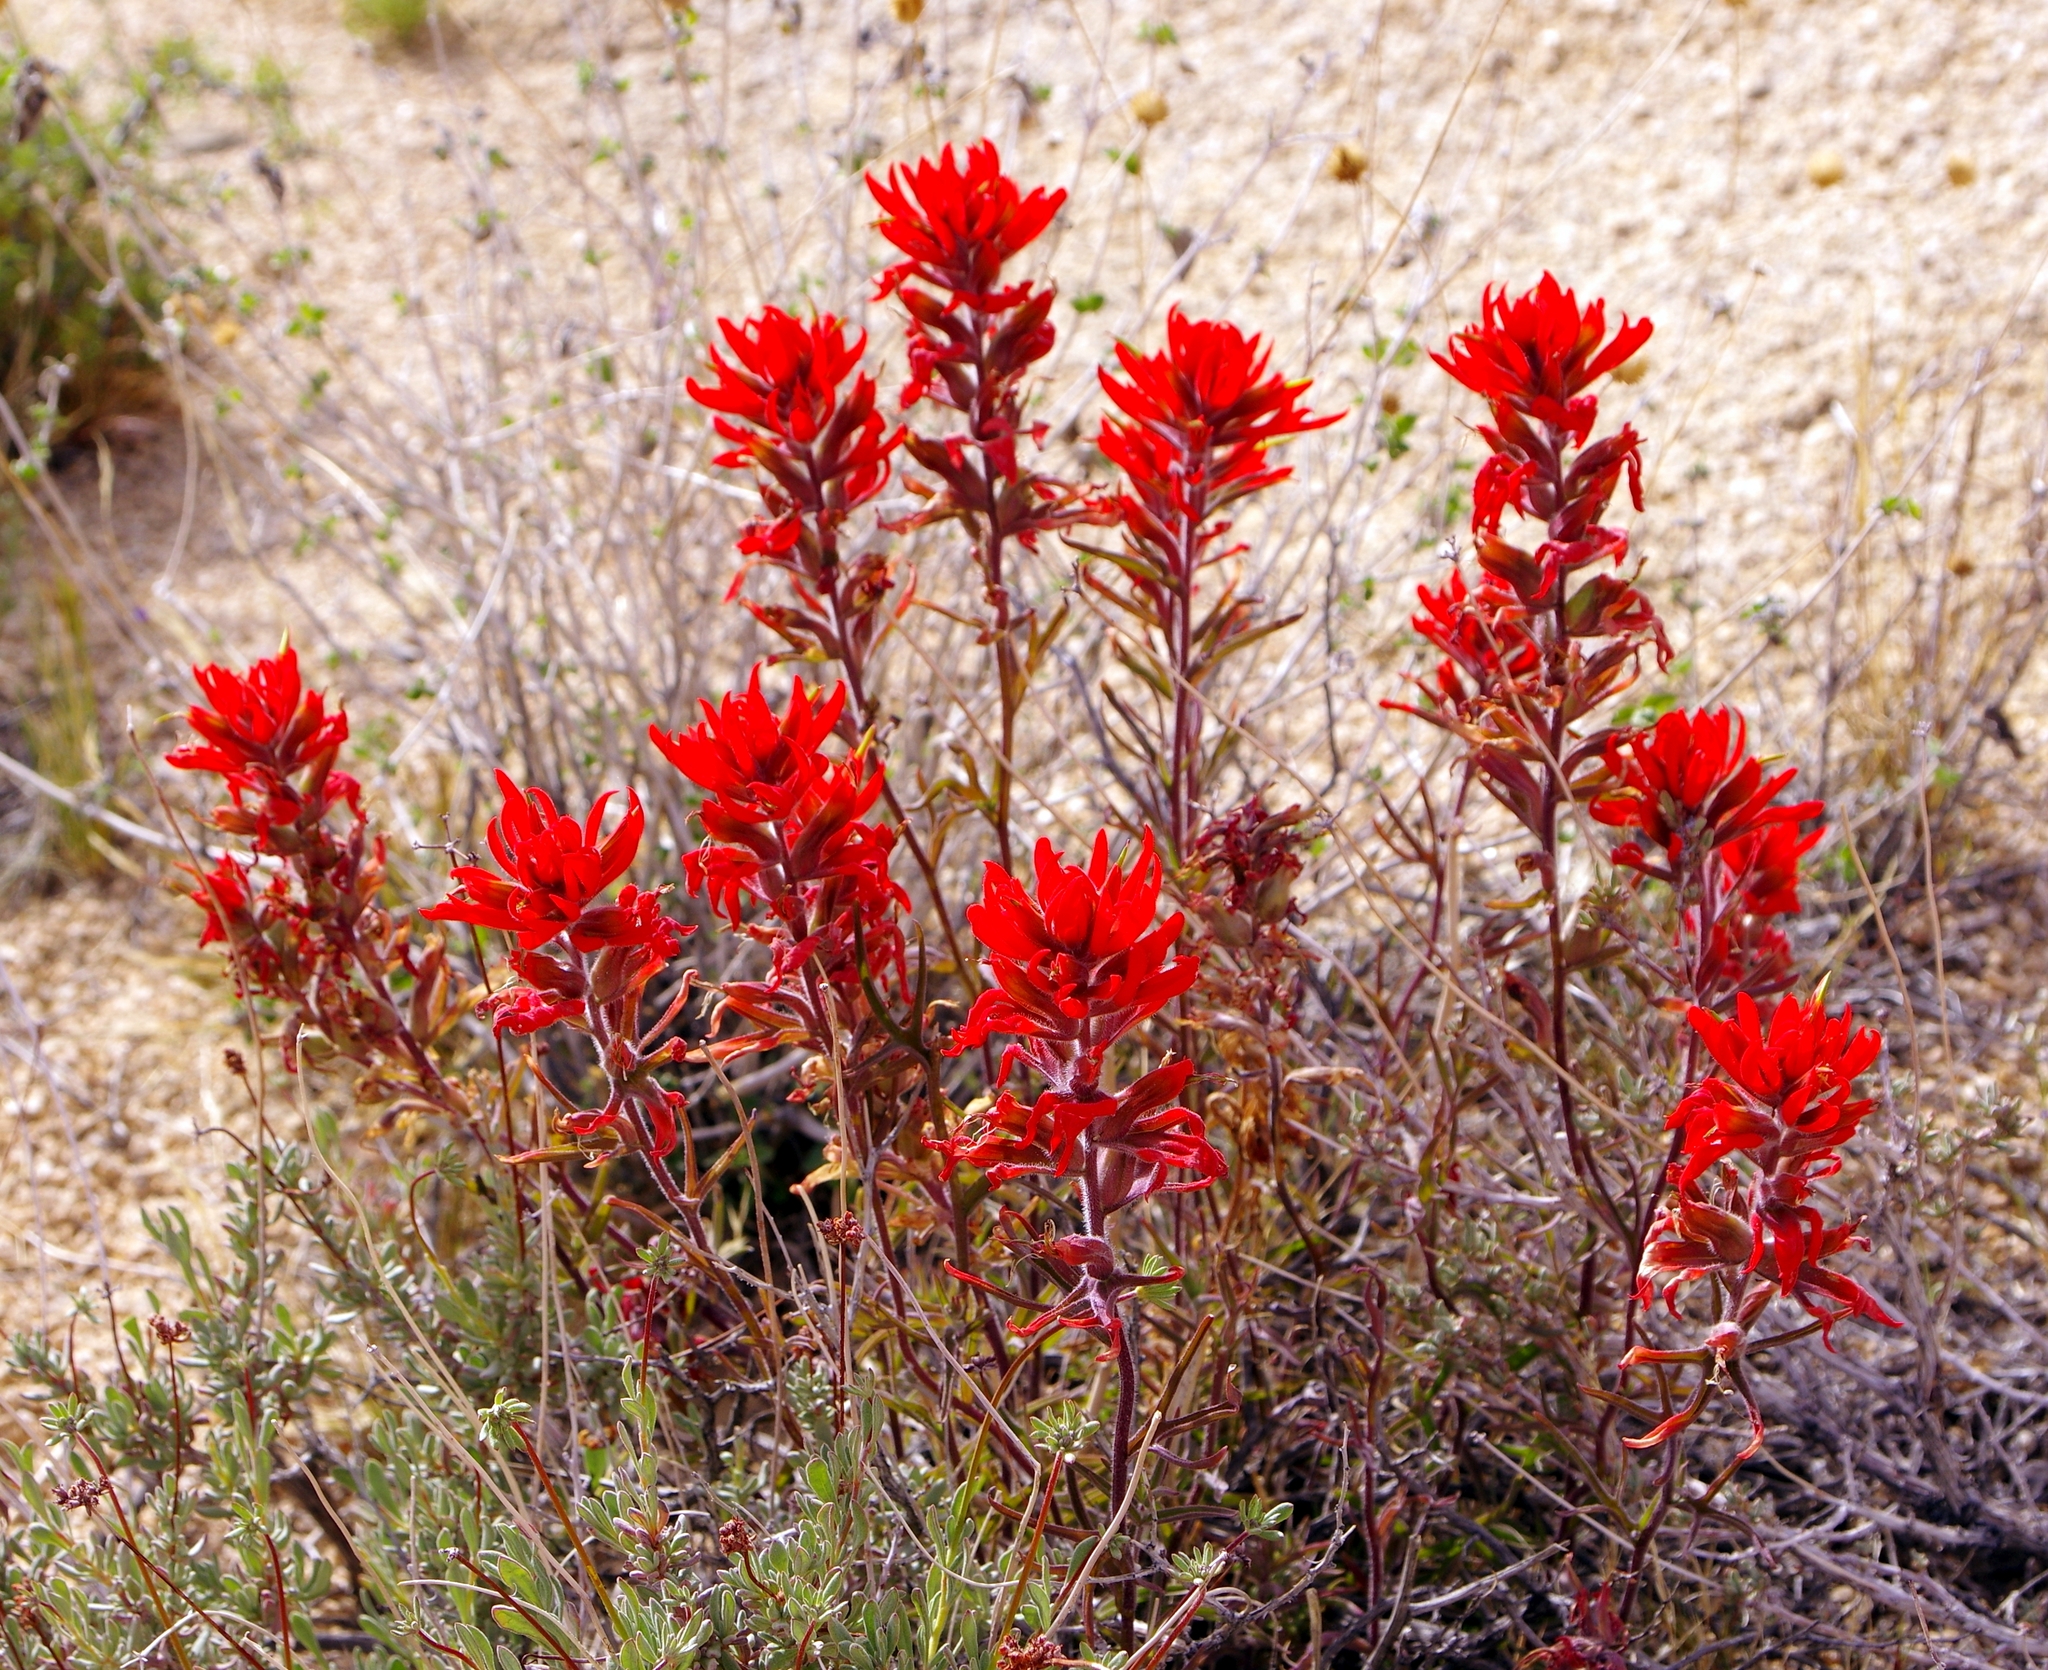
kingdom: Plantae
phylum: Tracheophyta
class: Magnoliopsida
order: Lamiales
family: Orobanchaceae
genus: Castilleja
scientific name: Castilleja chromosa
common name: Desert paintbrush
